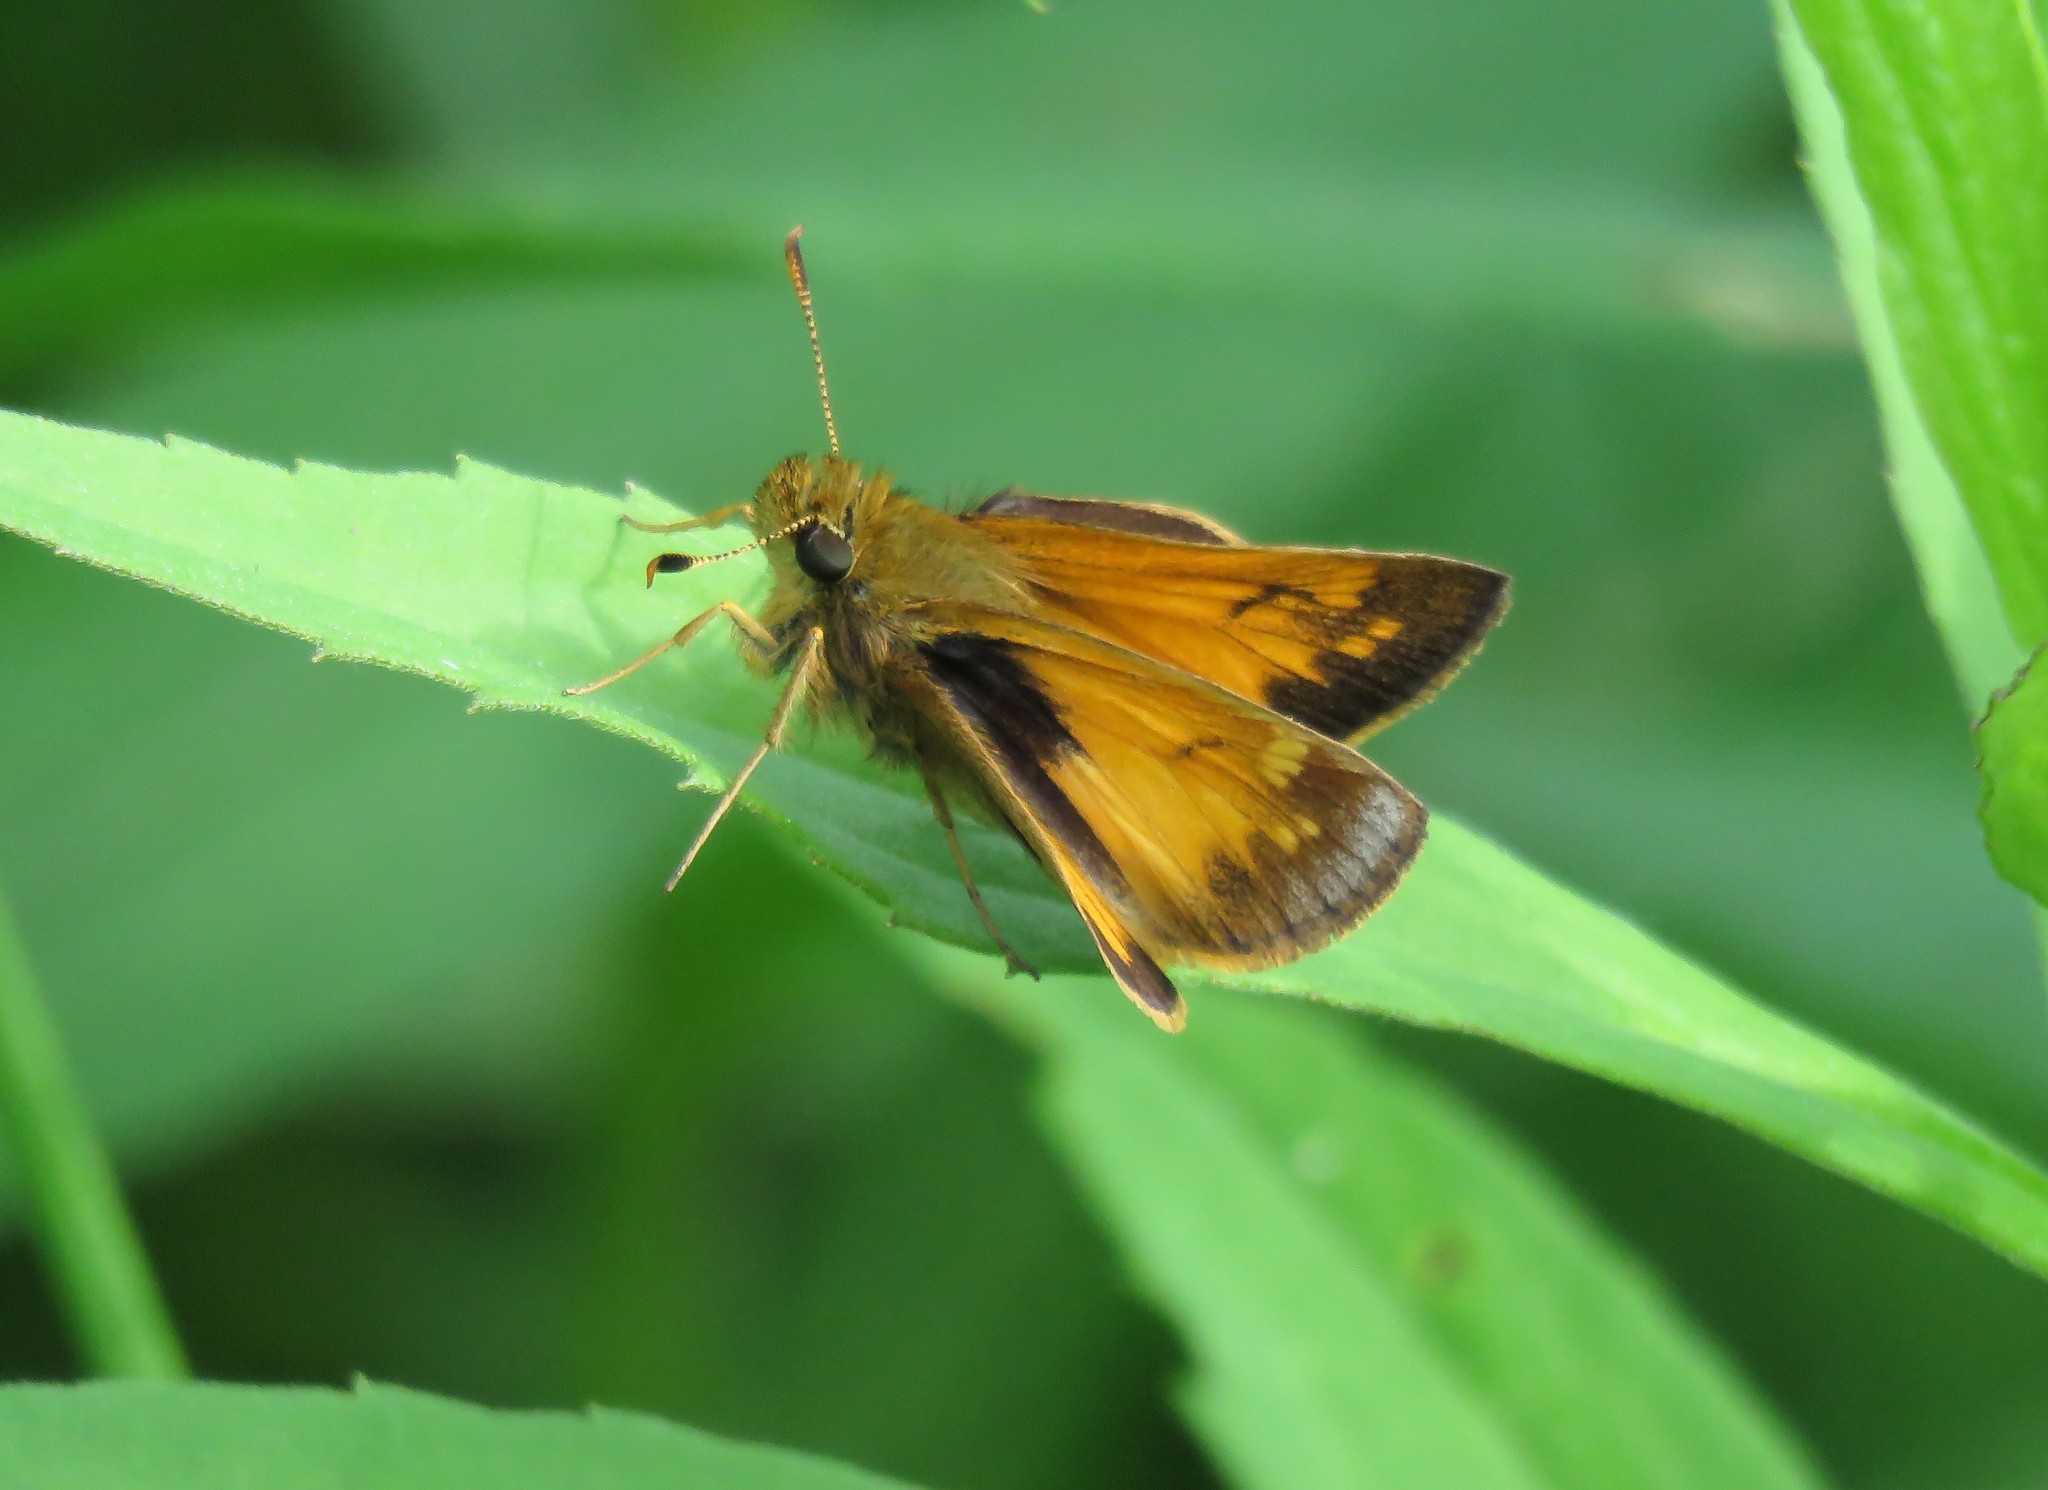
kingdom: Animalia
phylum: Arthropoda
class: Insecta
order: Lepidoptera
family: Hesperiidae
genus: Lon
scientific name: Lon hobomok
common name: Hobomok skipper
